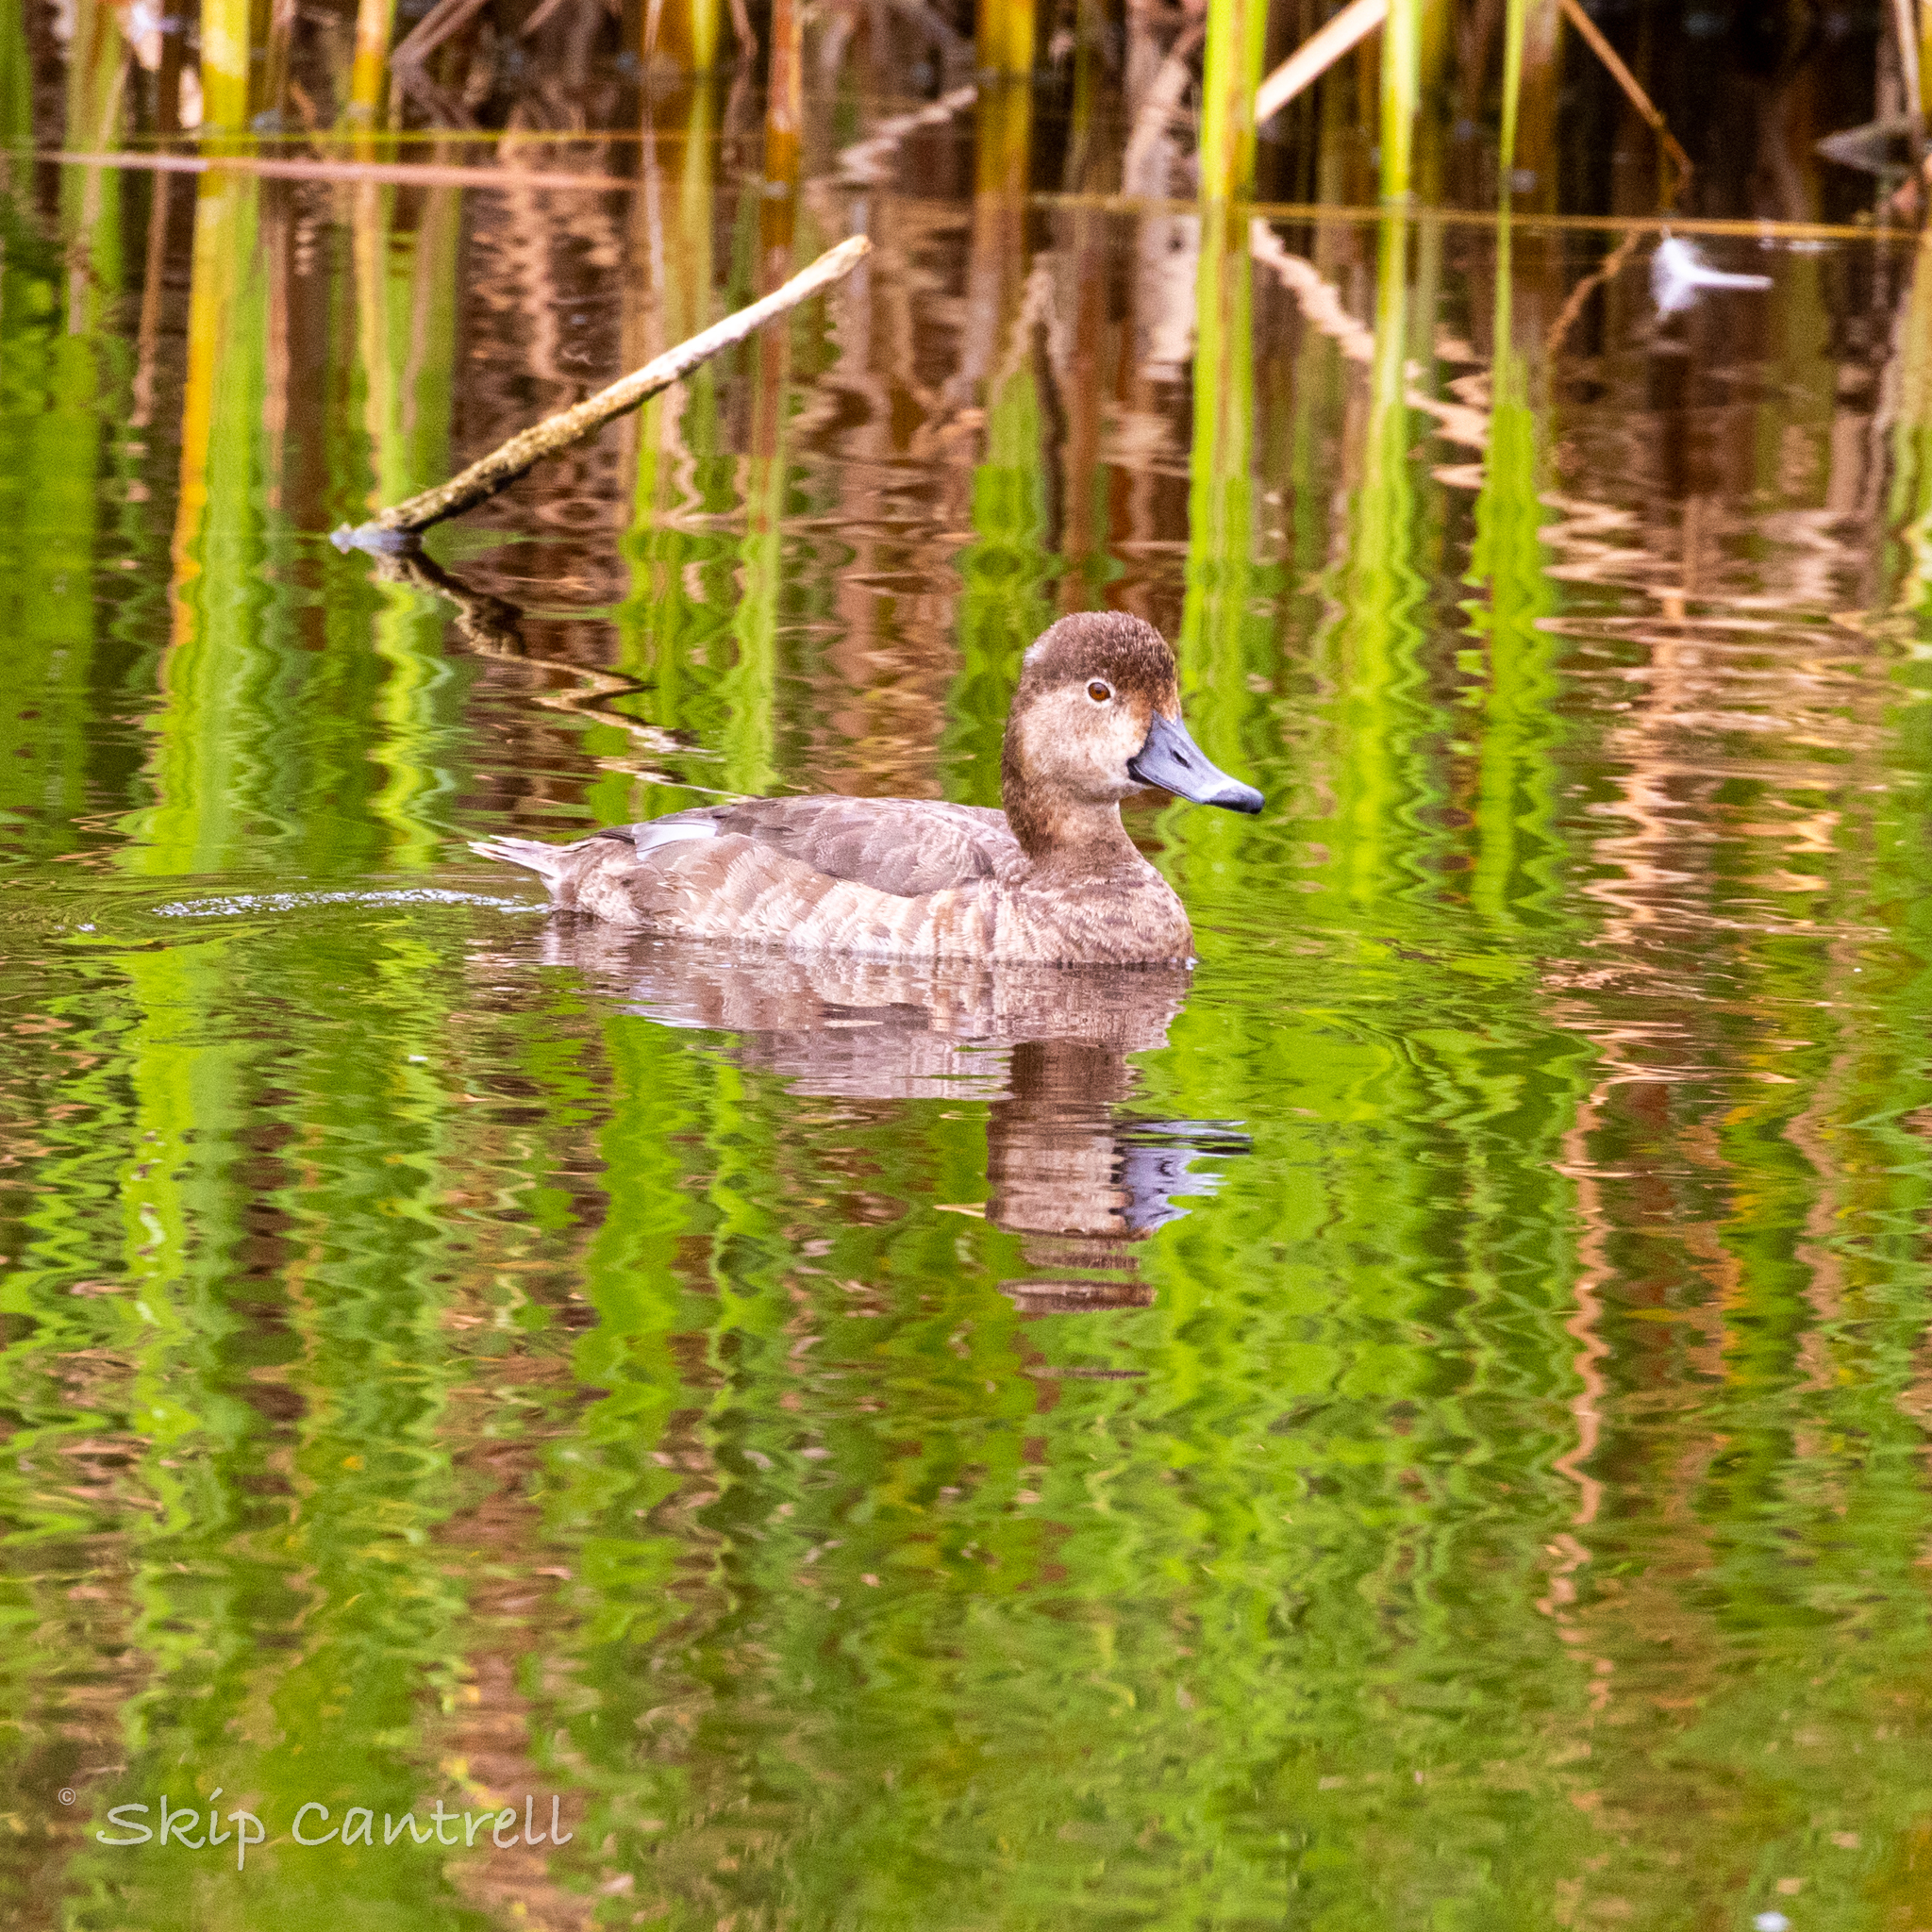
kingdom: Animalia
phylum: Chordata
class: Aves
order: Anseriformes
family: Anatidae
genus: Aythya
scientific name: Aythya americana
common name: Redhead
